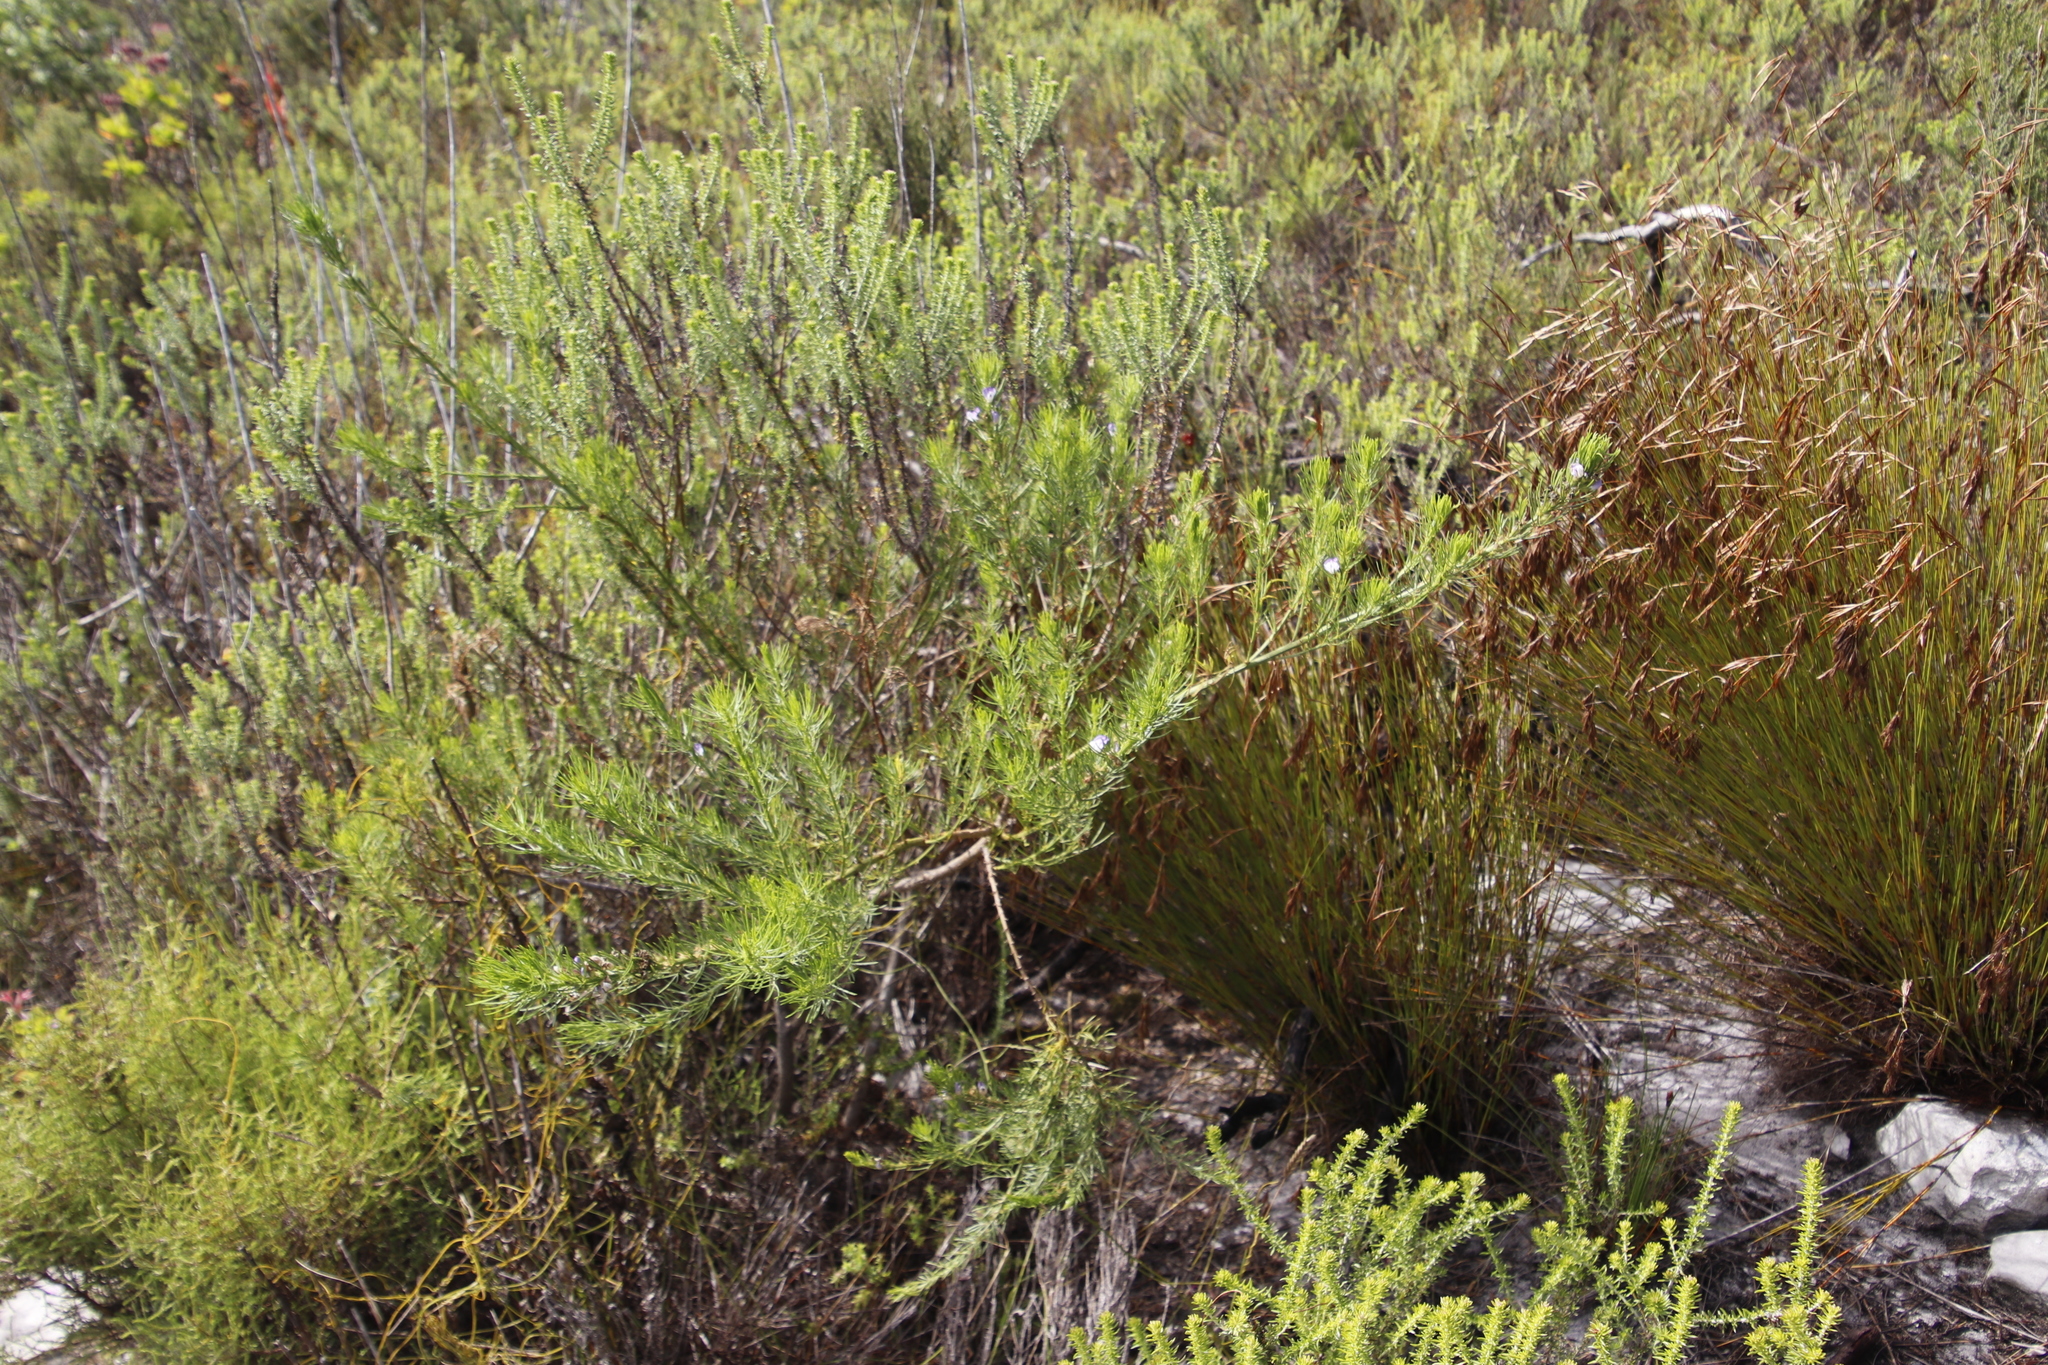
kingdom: Plantae
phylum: Tracheophyta
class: Magnoliopsida
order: Fabales
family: Fabaceae
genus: Psoralea
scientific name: Psoralea pinnata
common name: African scurfpea
